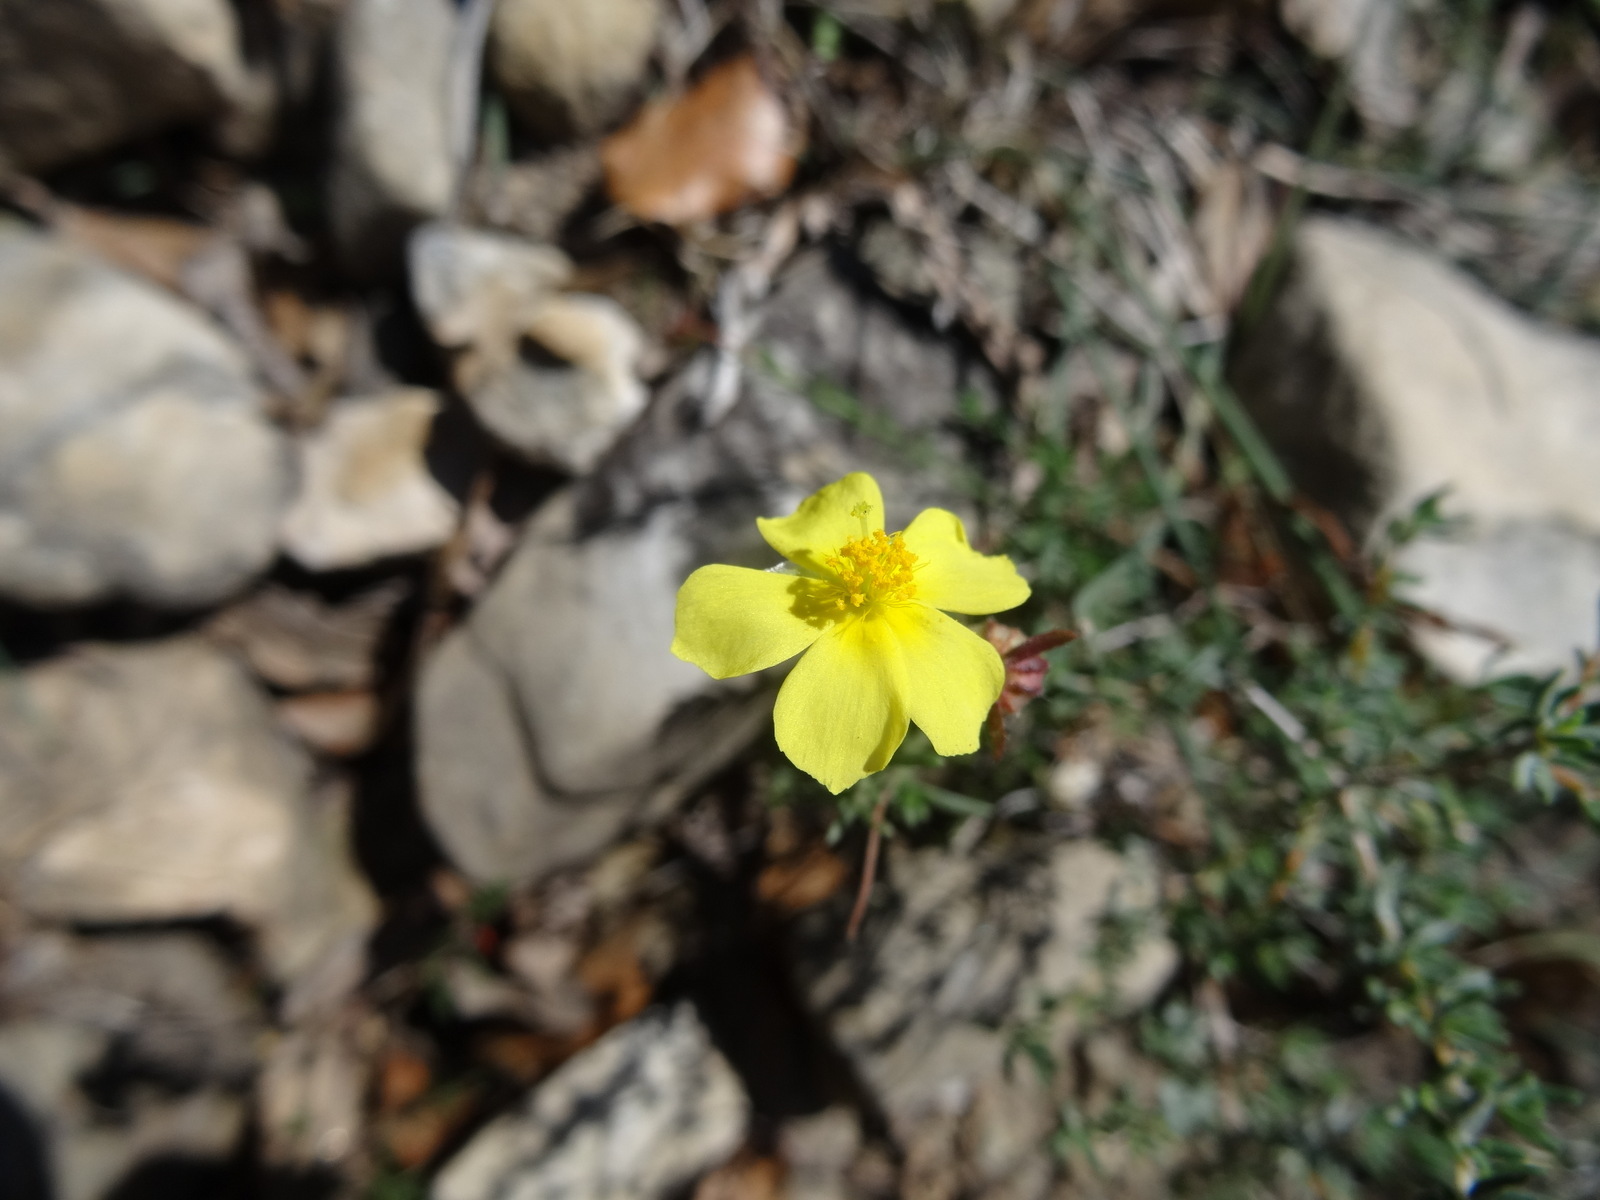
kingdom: Plantae
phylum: Tracheophyta
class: Magnoliopsida
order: Malvales
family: Cistaceae
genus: Helianthemum
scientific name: Helianthemum nummularium
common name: Common rock-rose
